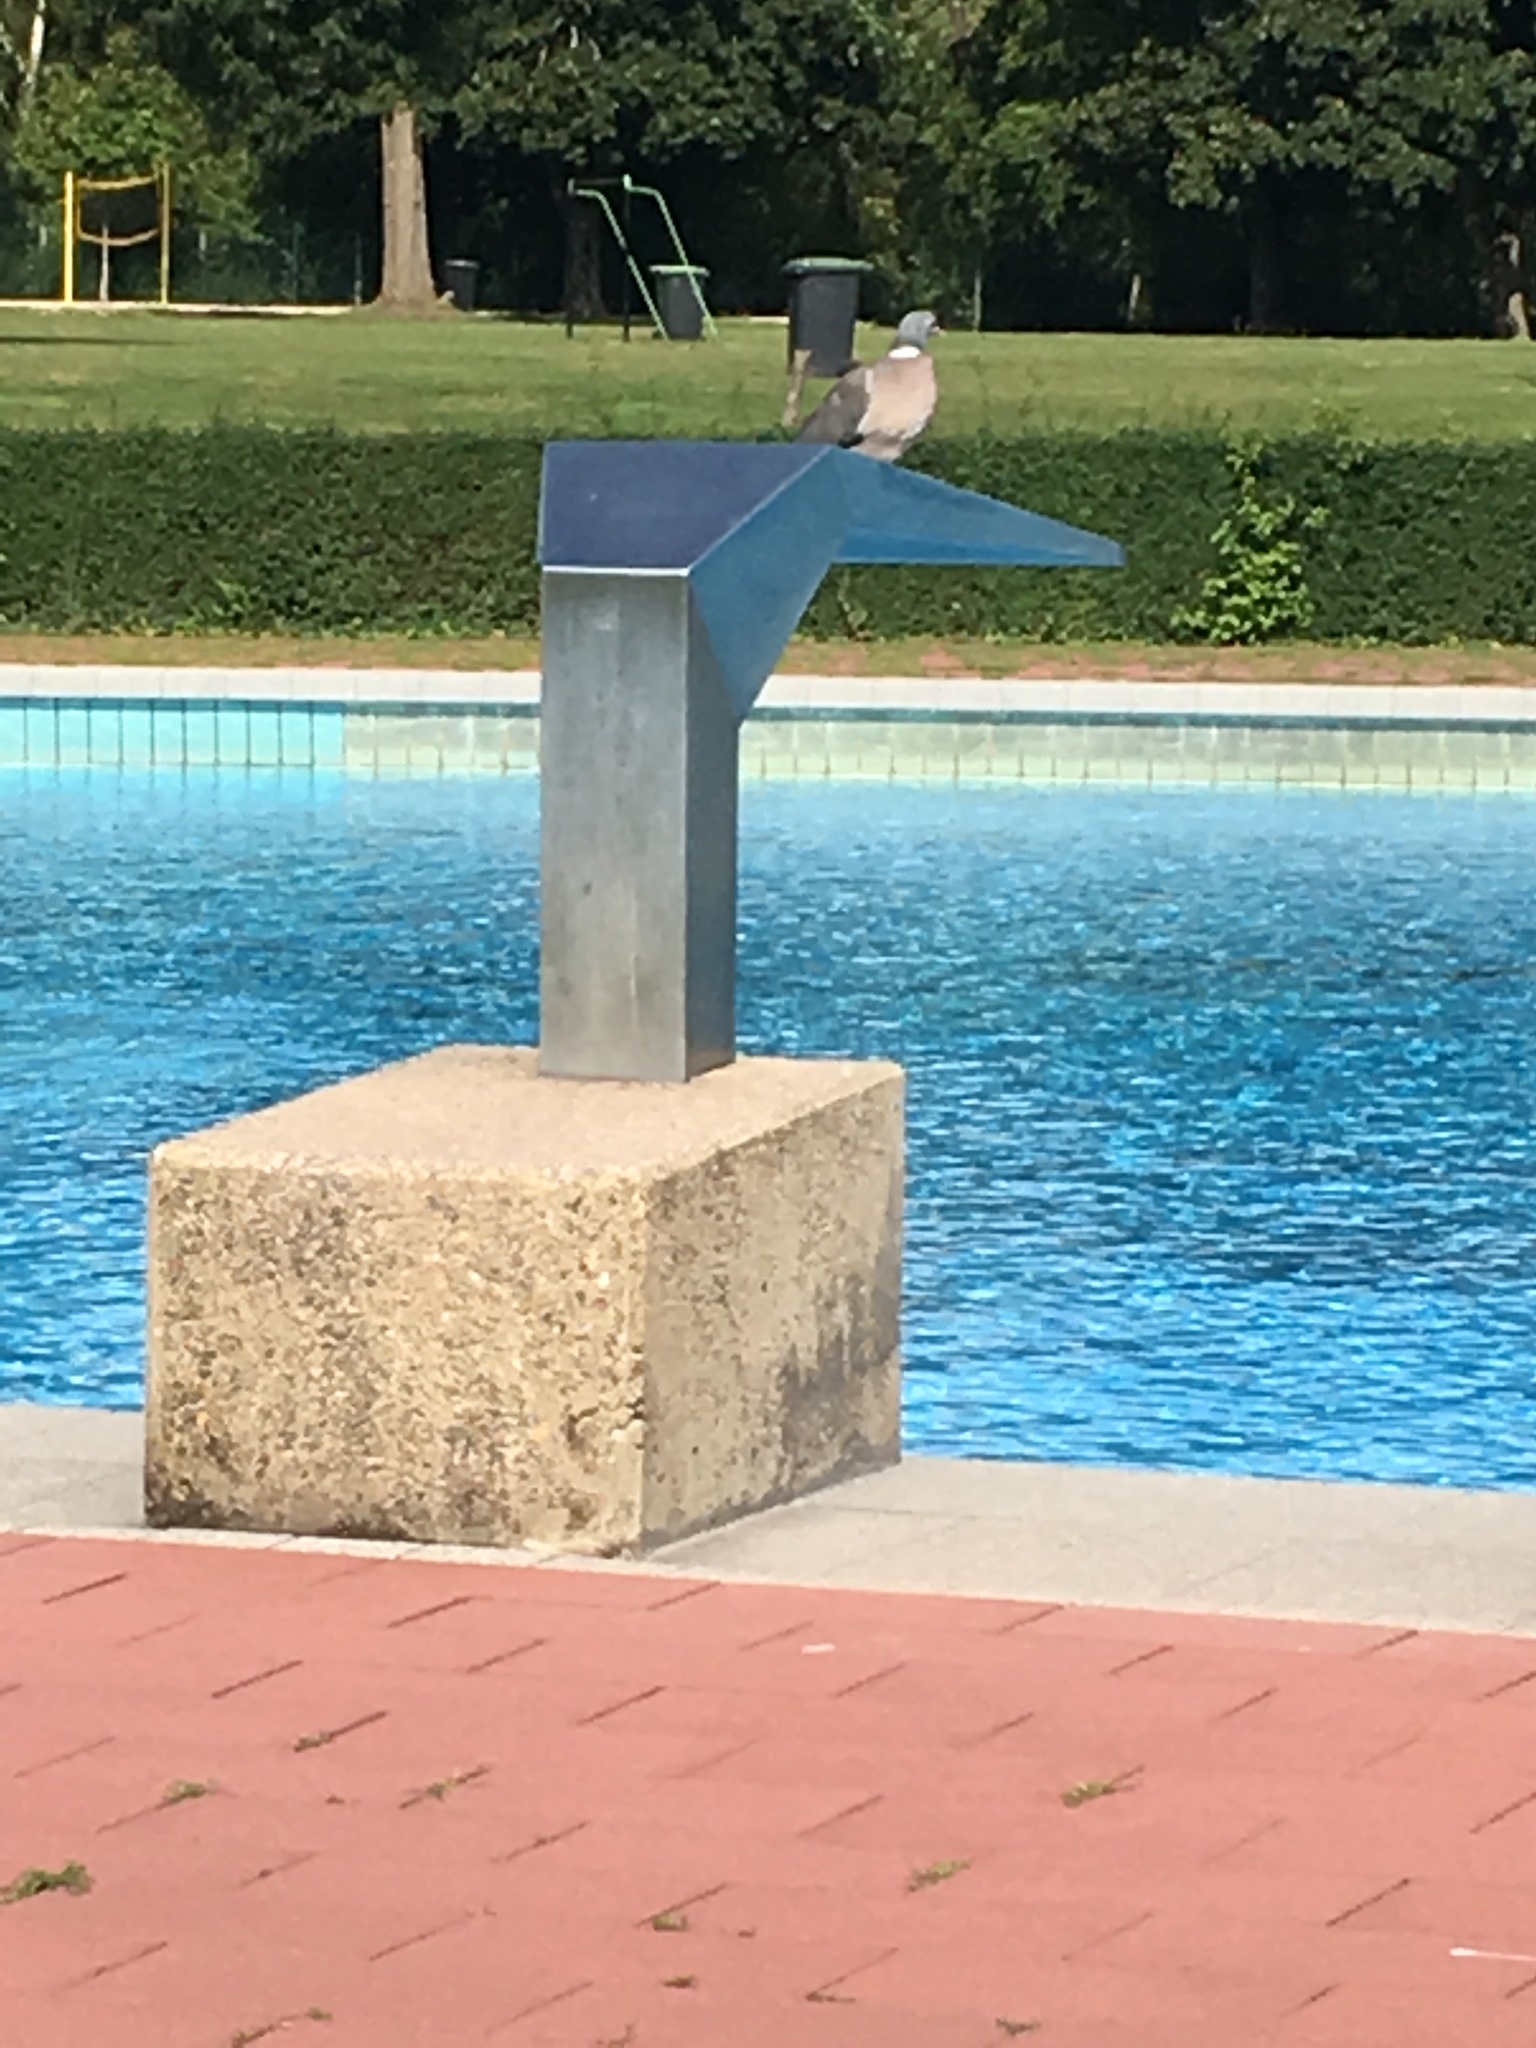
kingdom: Animalia
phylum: Chordata
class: Aves
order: Columbiformes
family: Columbidae
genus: Columba
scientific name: Columba palumbus
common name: Common wood pigeon
